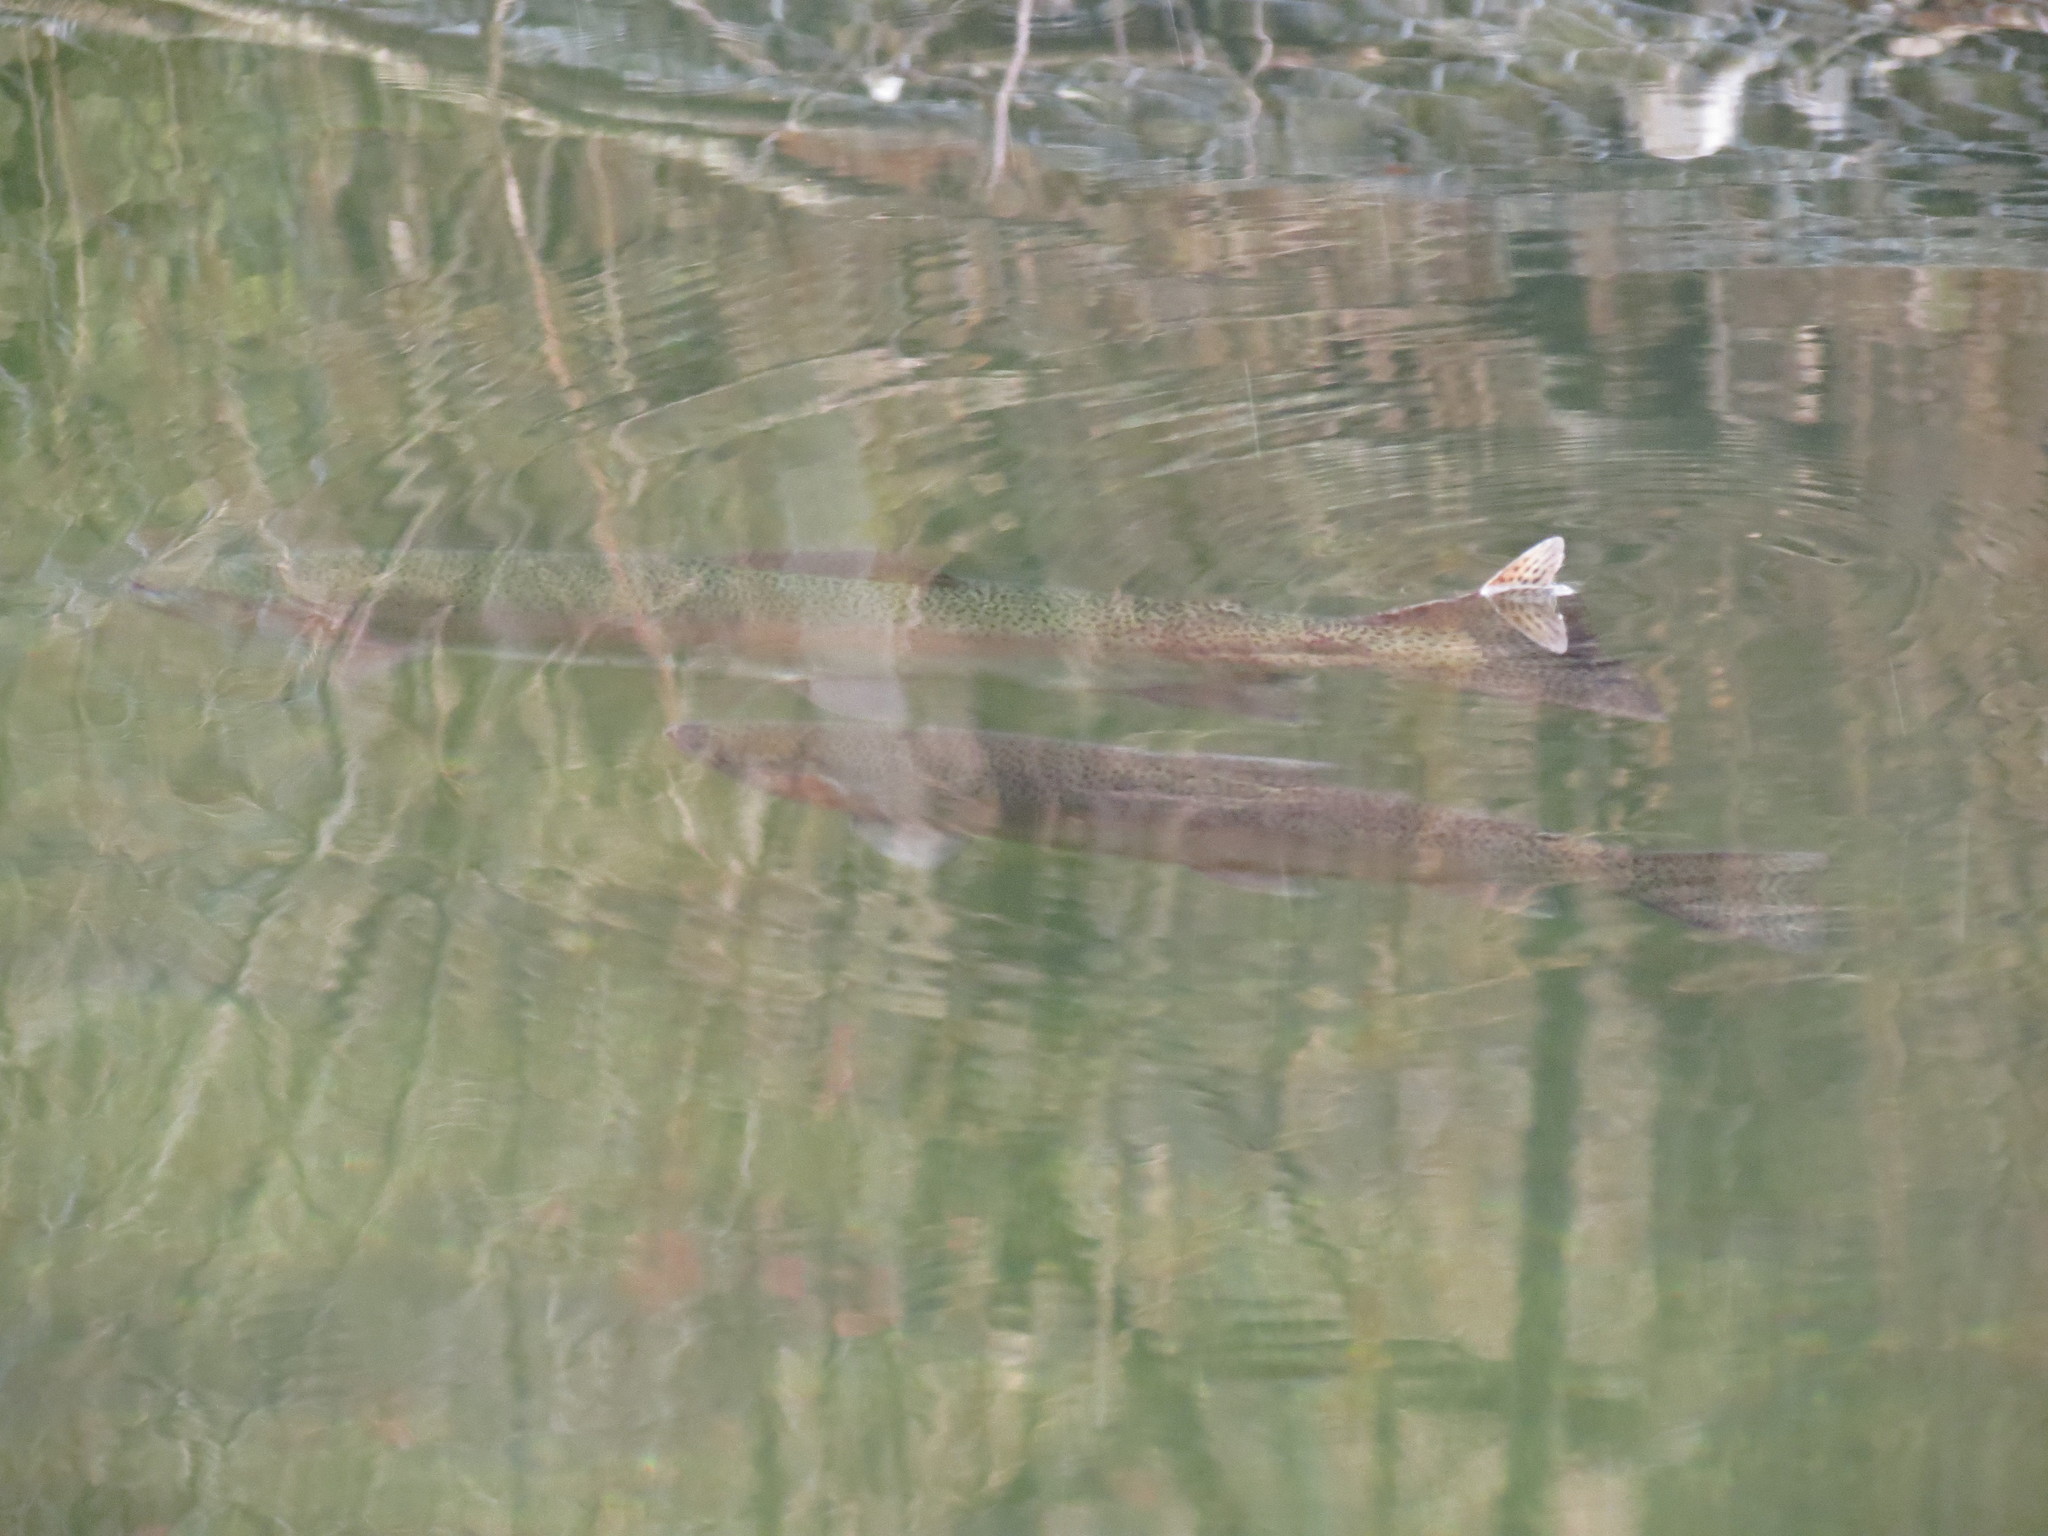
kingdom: Animalia
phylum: Chordata
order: Salmoniformes
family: Salmonidae
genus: Oncorhynchus
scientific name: Oncorhynchus mykiss
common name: Rainbow trout
